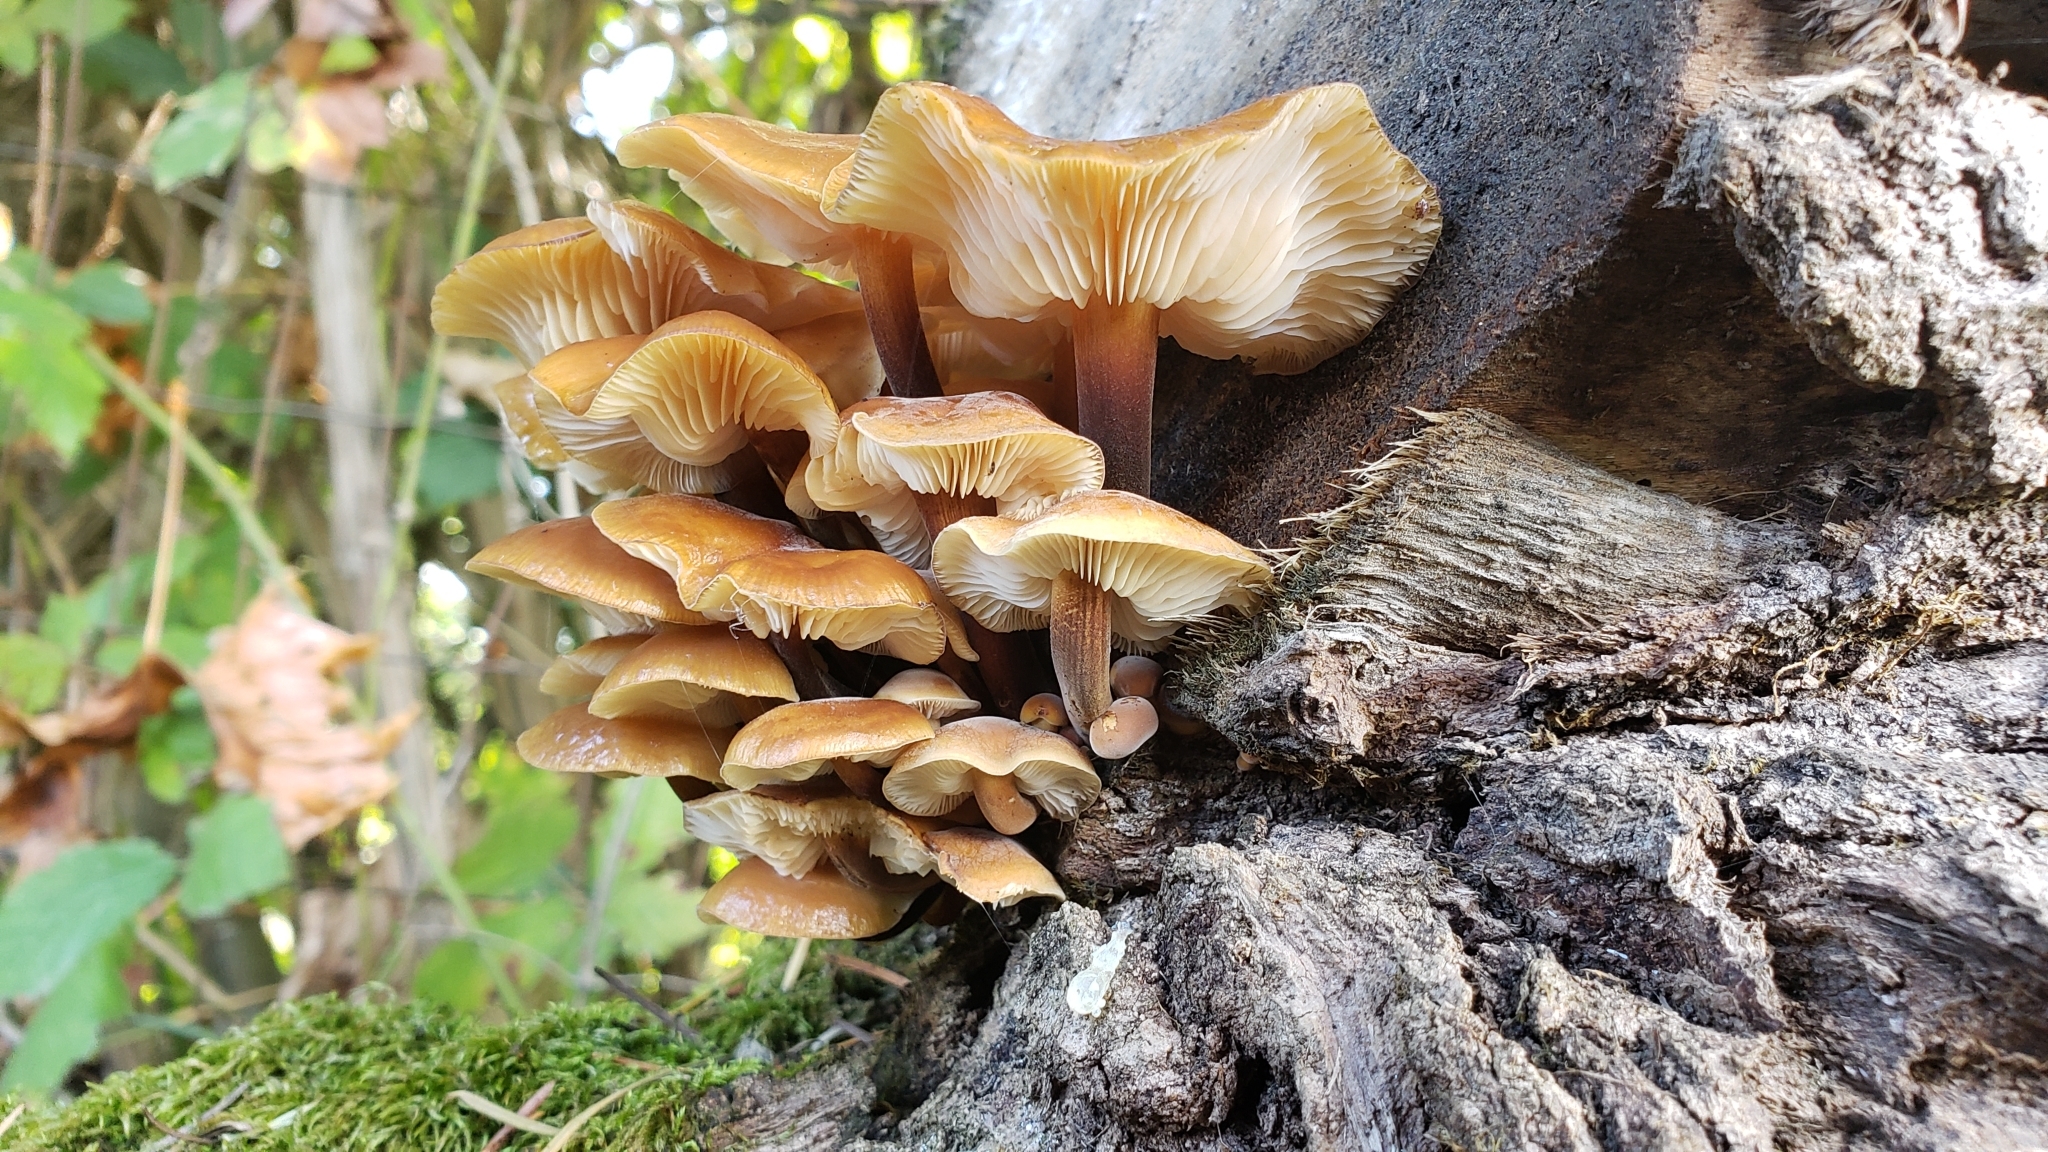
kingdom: Fungi
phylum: Basidiomycota
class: Agaricomycetes
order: Agaricales
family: Physalacriaceae
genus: Flammulina
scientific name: Flammulina velutipes
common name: Velvet shank
